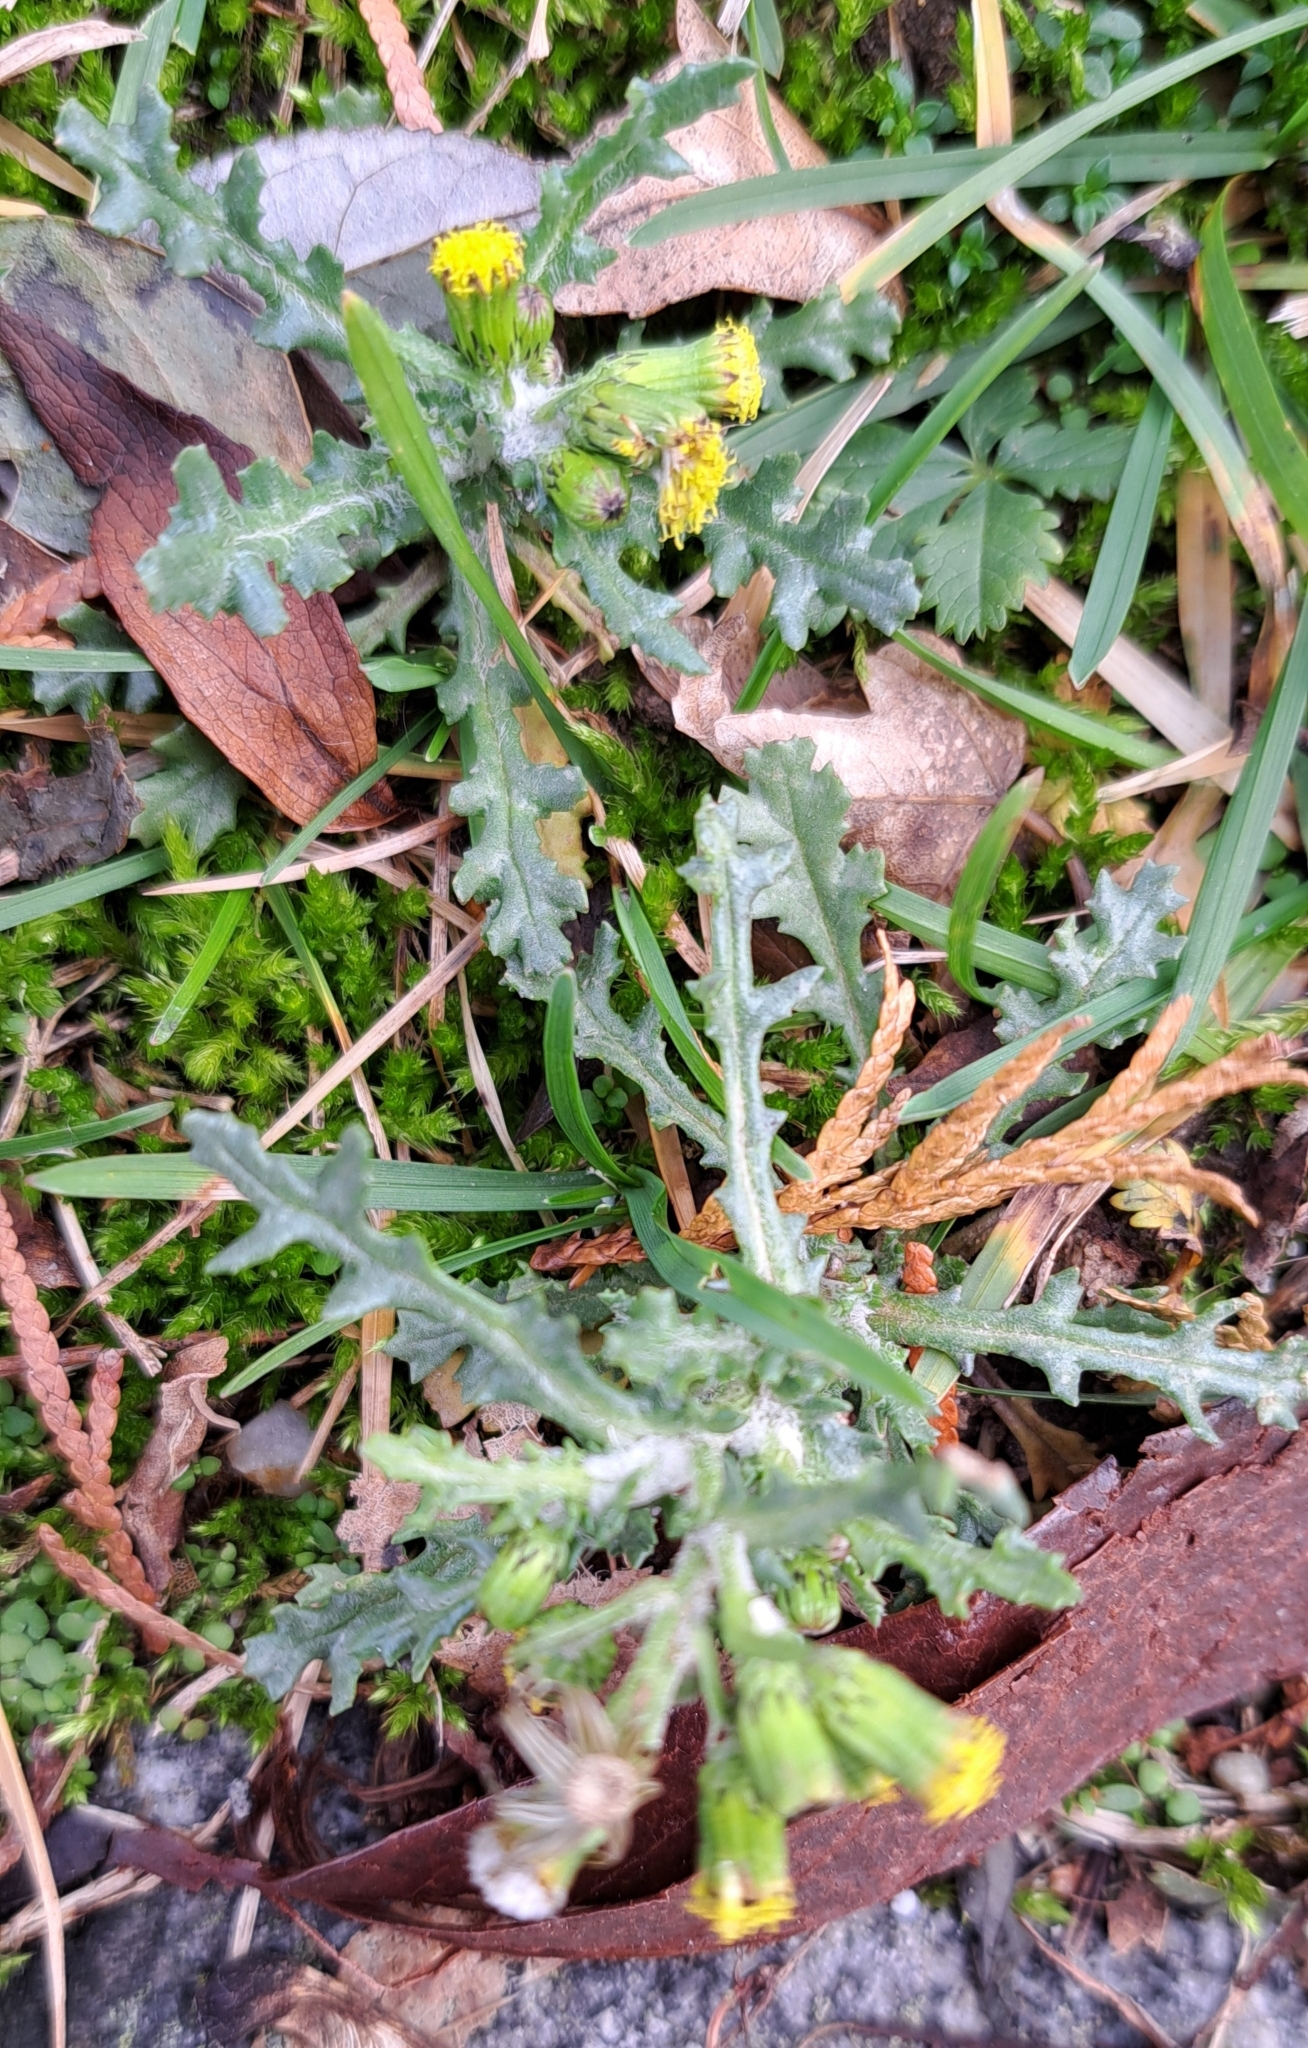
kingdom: Plantae
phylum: Tracheophyta
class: Magnoliopsida
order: Asterales
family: Asteraceae
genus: Senecio
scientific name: Senecio vulgaris
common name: Old-man-in-the-spring
